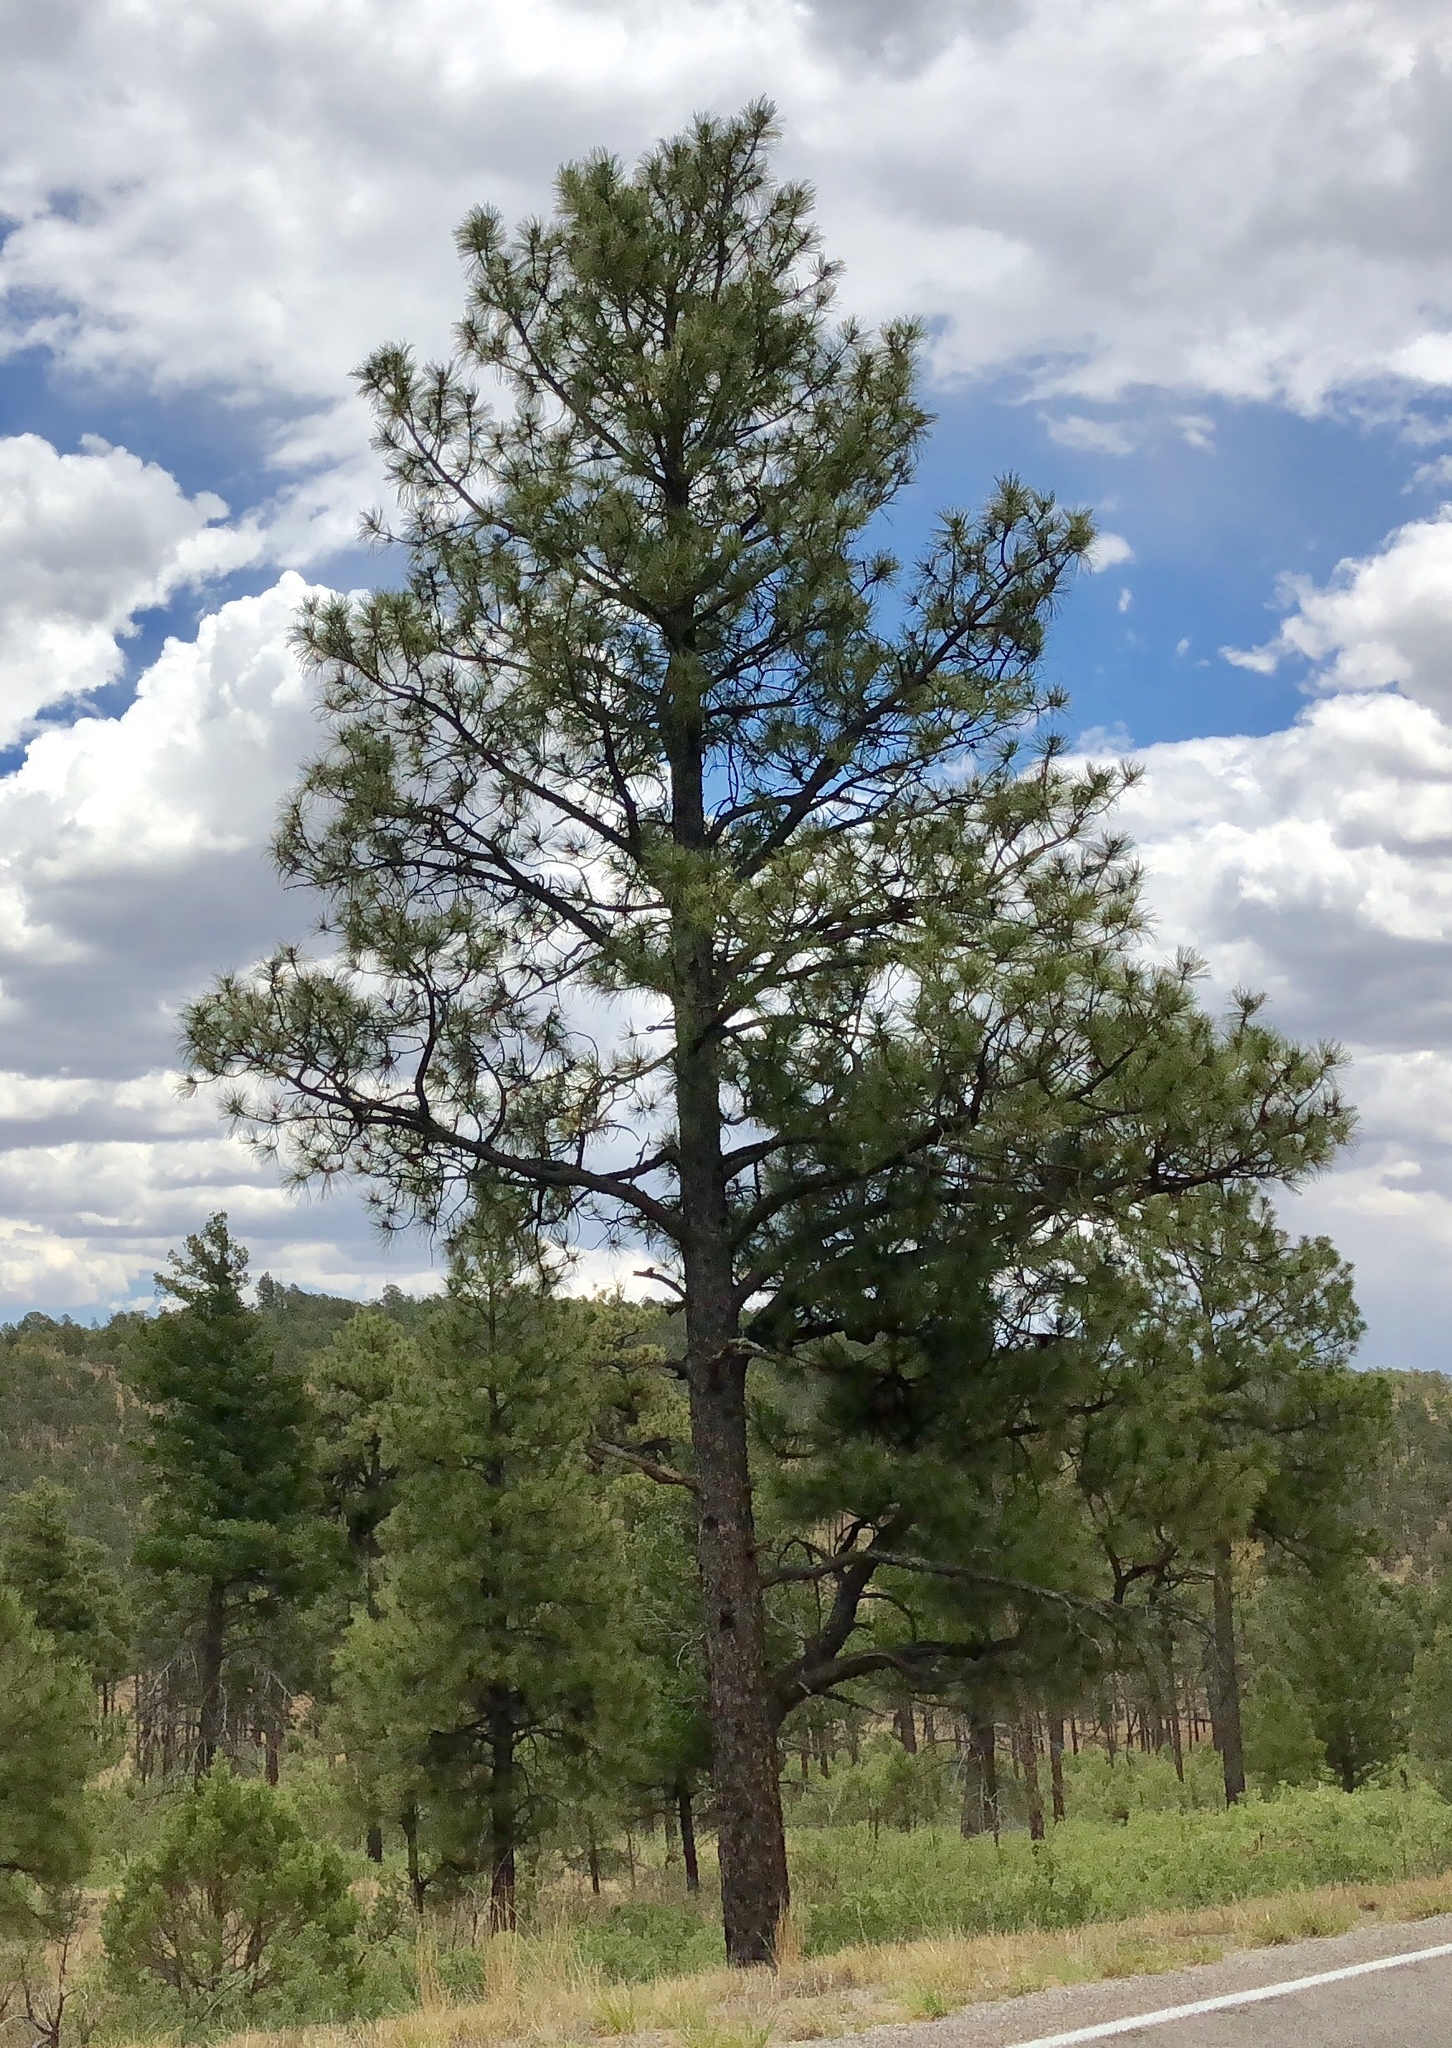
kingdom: Plantae
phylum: Tracheophyta
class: Pinopsida
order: Pinales
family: Pinaceae
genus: Pinus
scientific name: Pinus ponderosa
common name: Western yellow-pine
